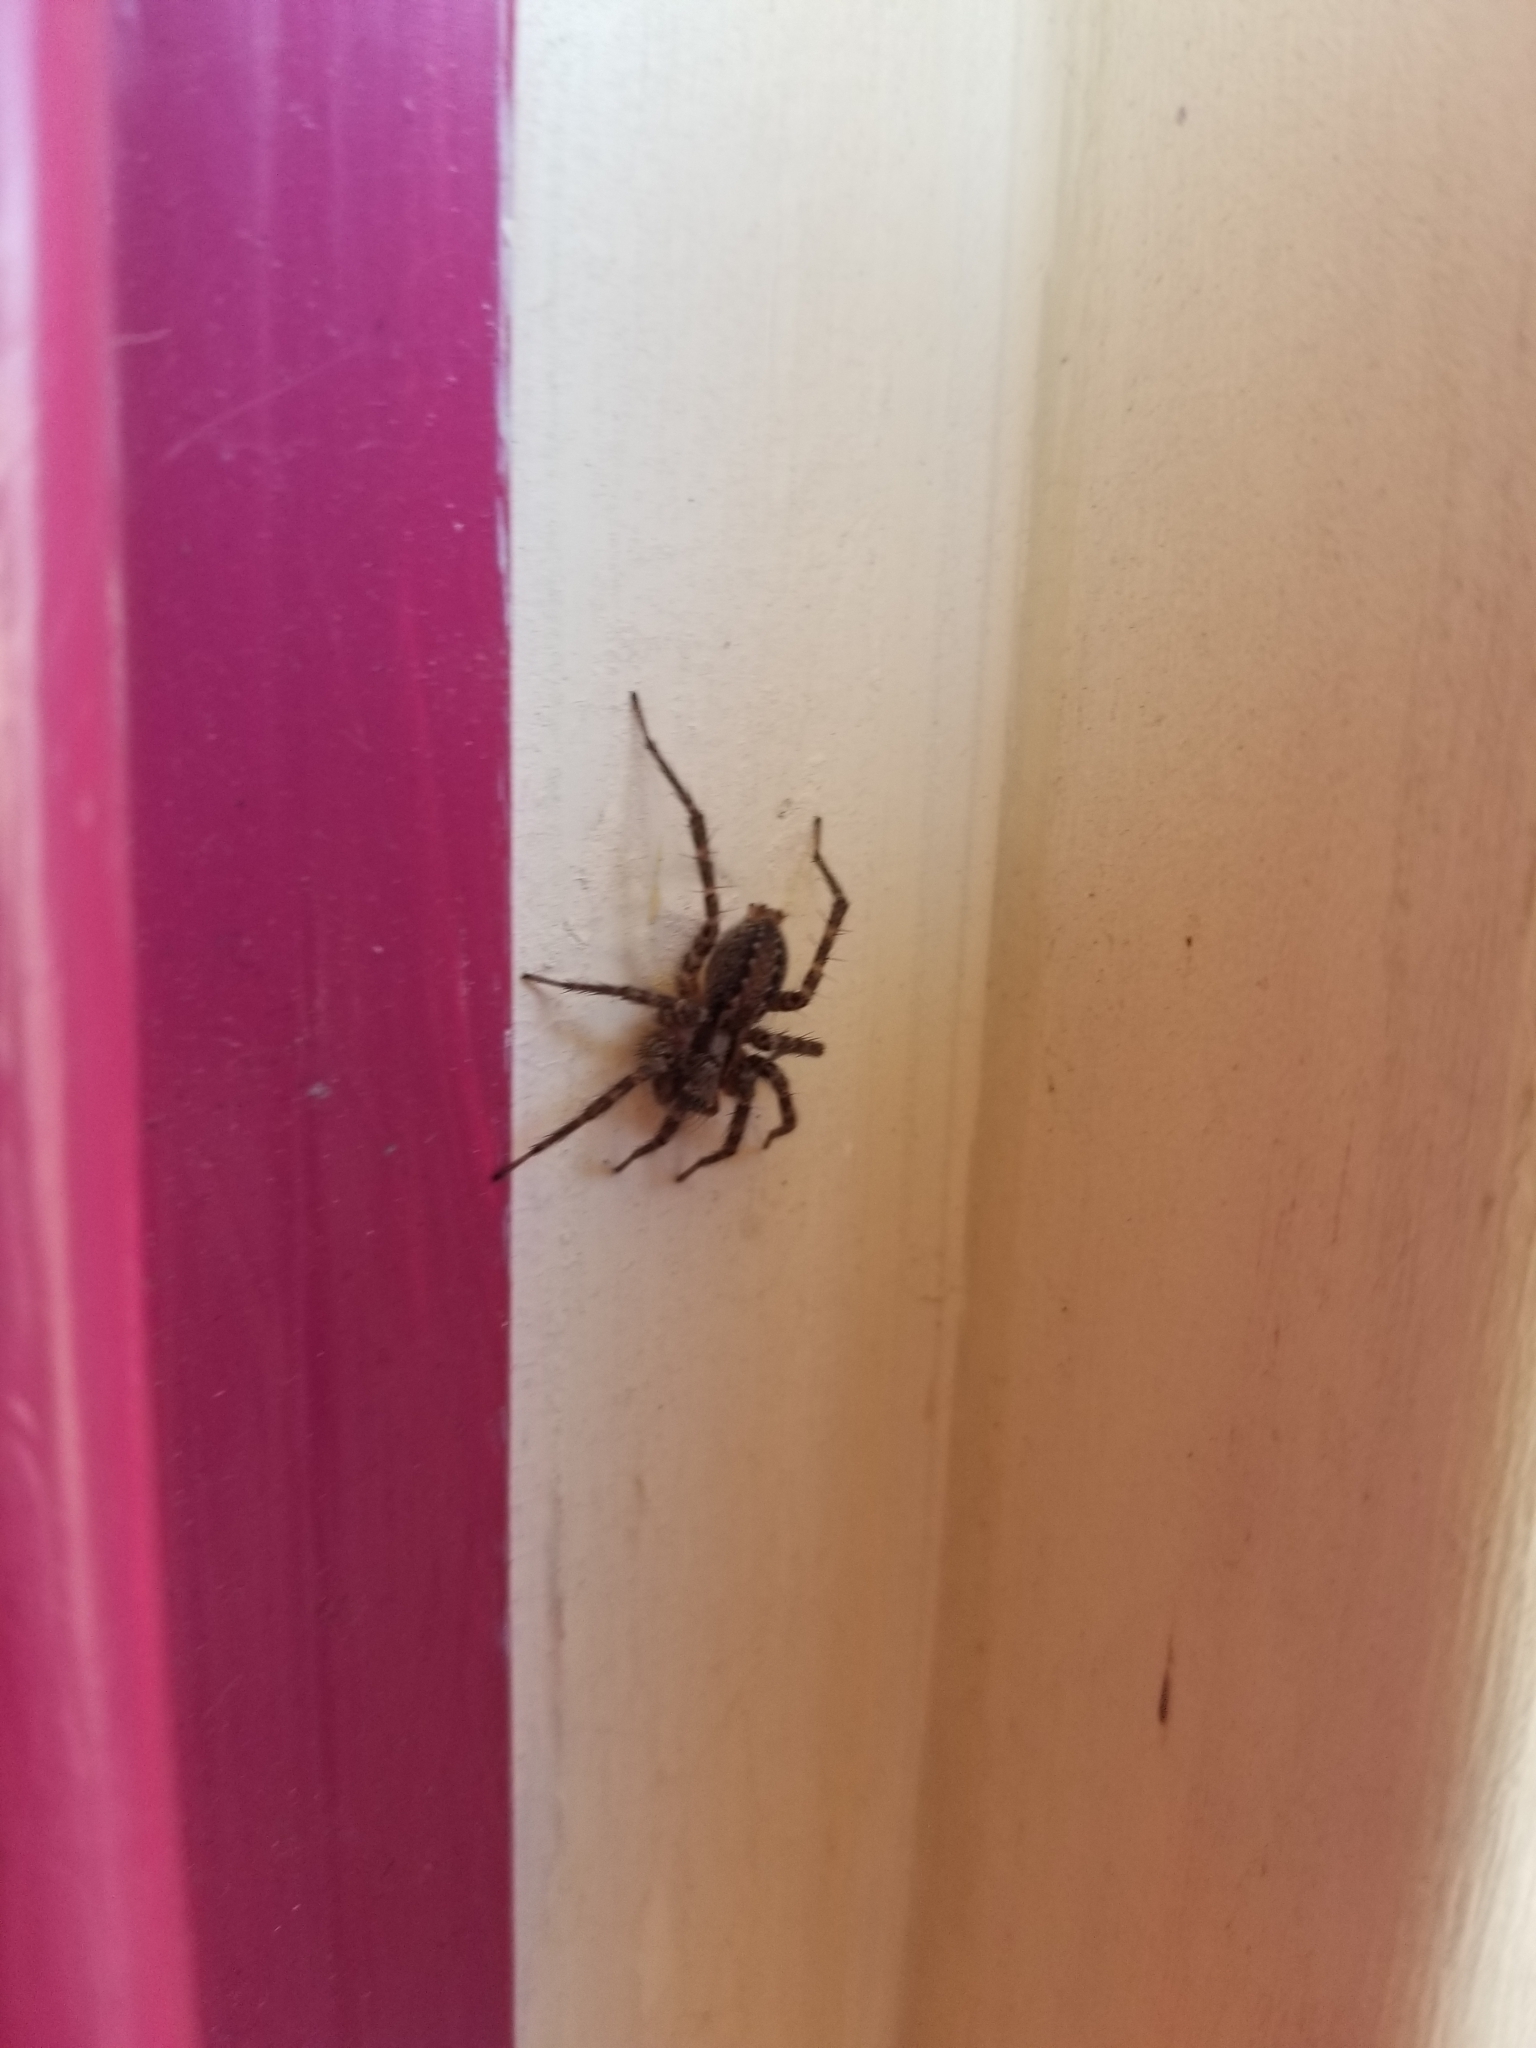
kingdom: Animalia
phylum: Arthropoda
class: Arachnida
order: Araneae
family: Agelenidae
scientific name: Agelenidae
